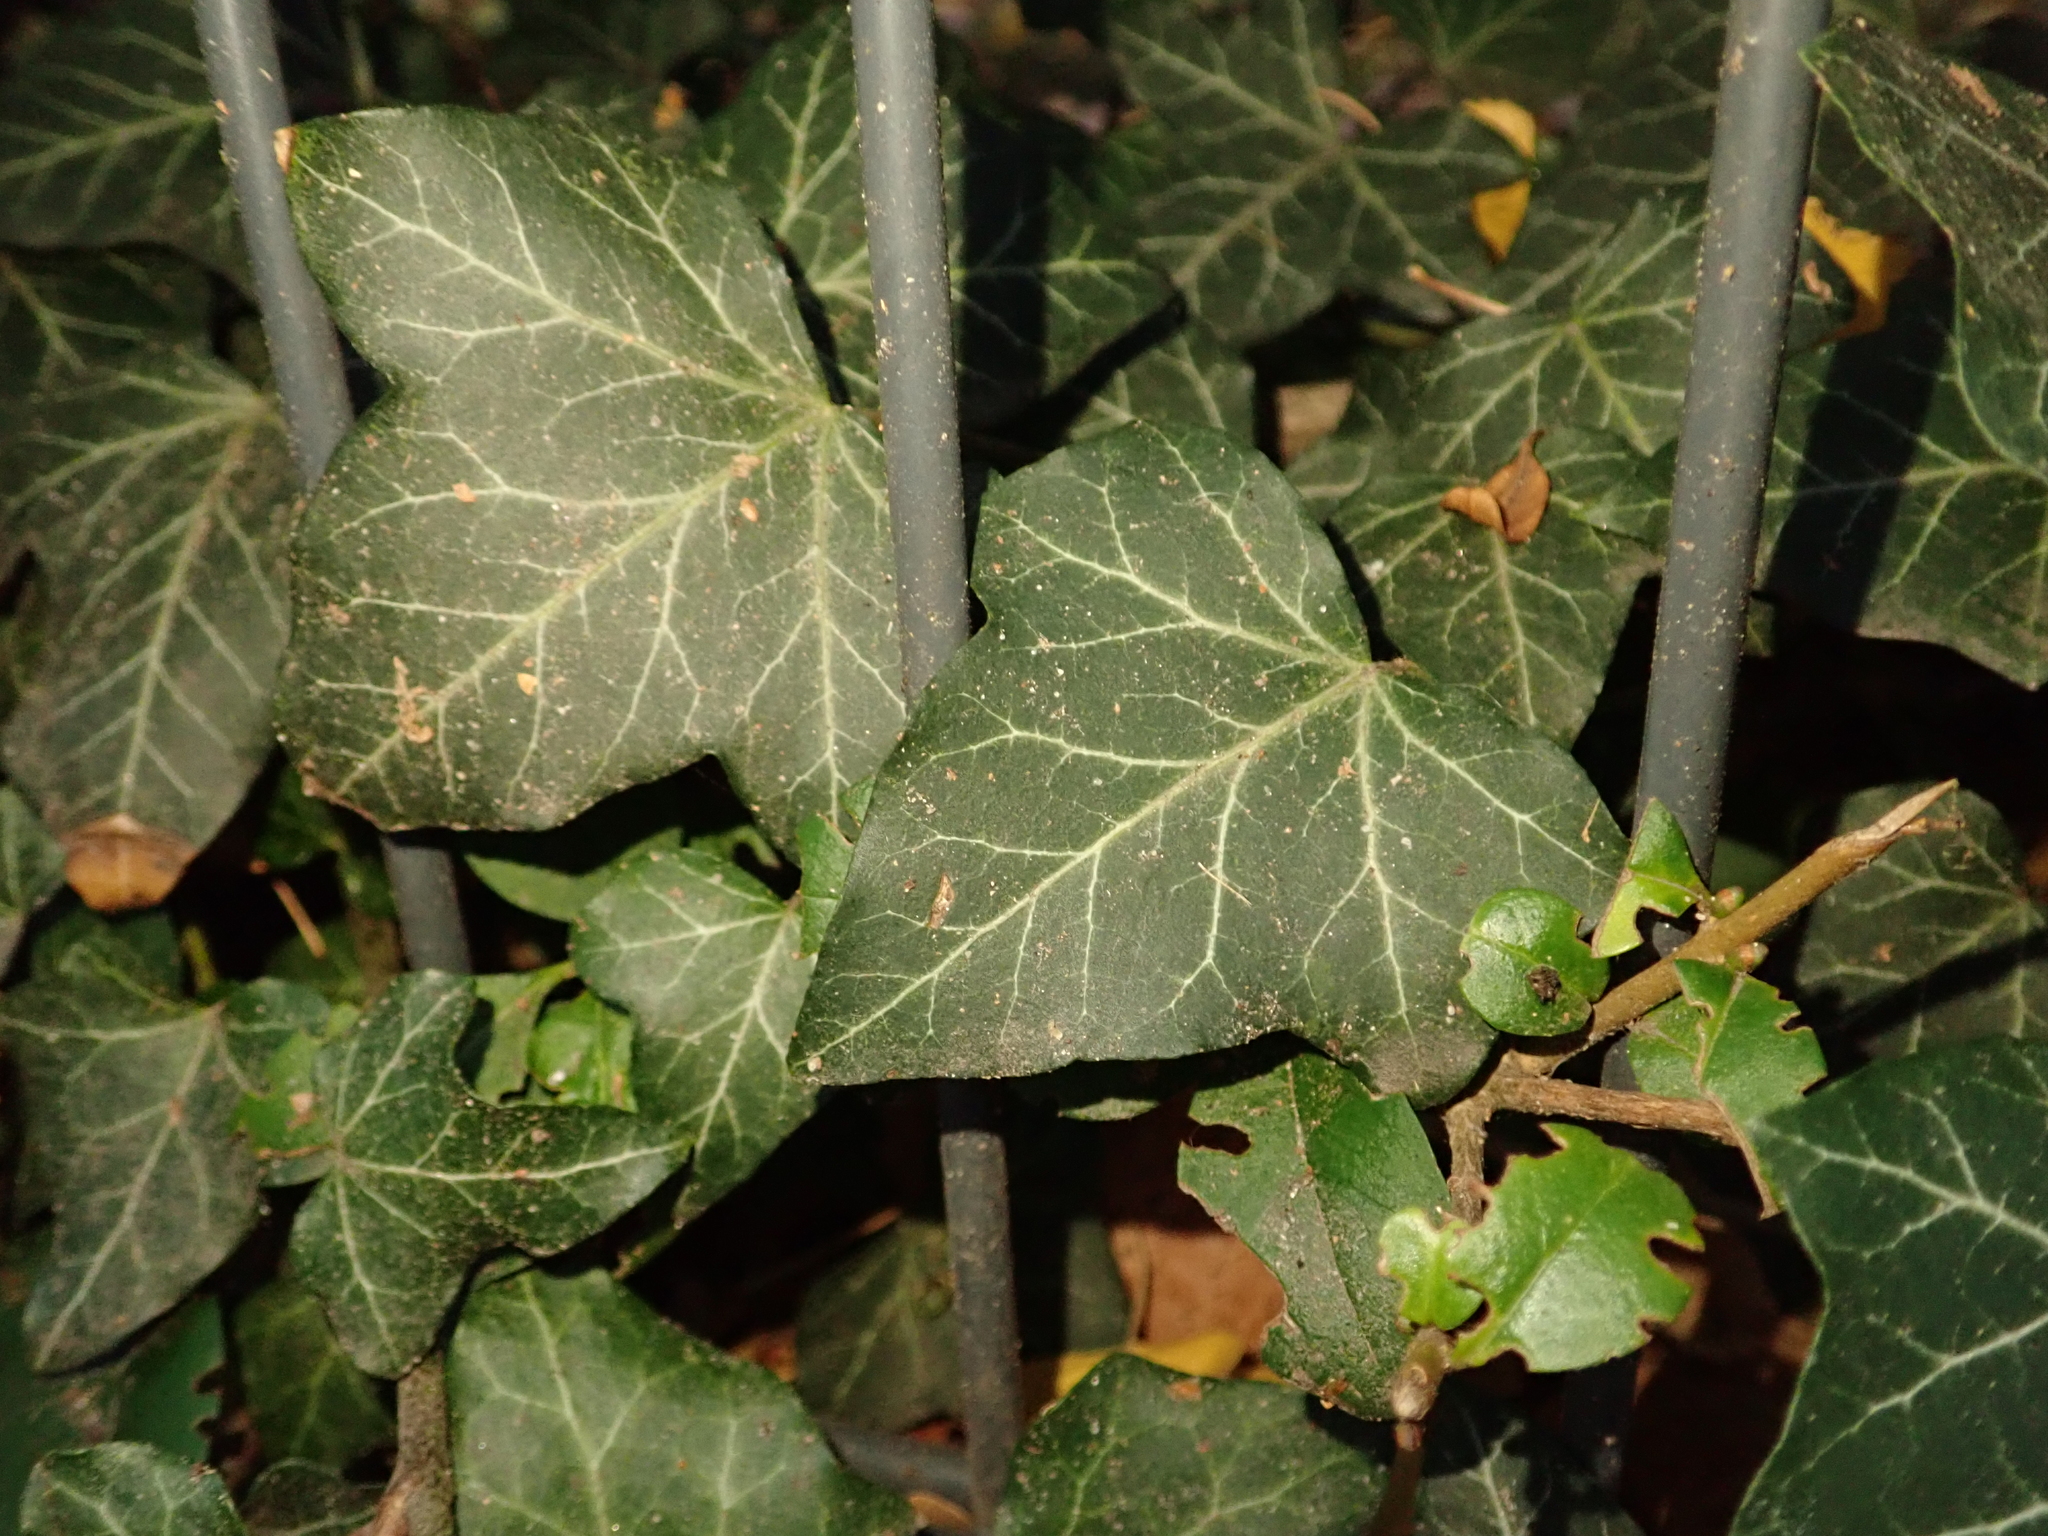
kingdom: Plantae
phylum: Tracheophyta
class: Magnoliopsida
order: Apiales
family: Araliaceae
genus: Hedera
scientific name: Hedera helix
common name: Ivy
